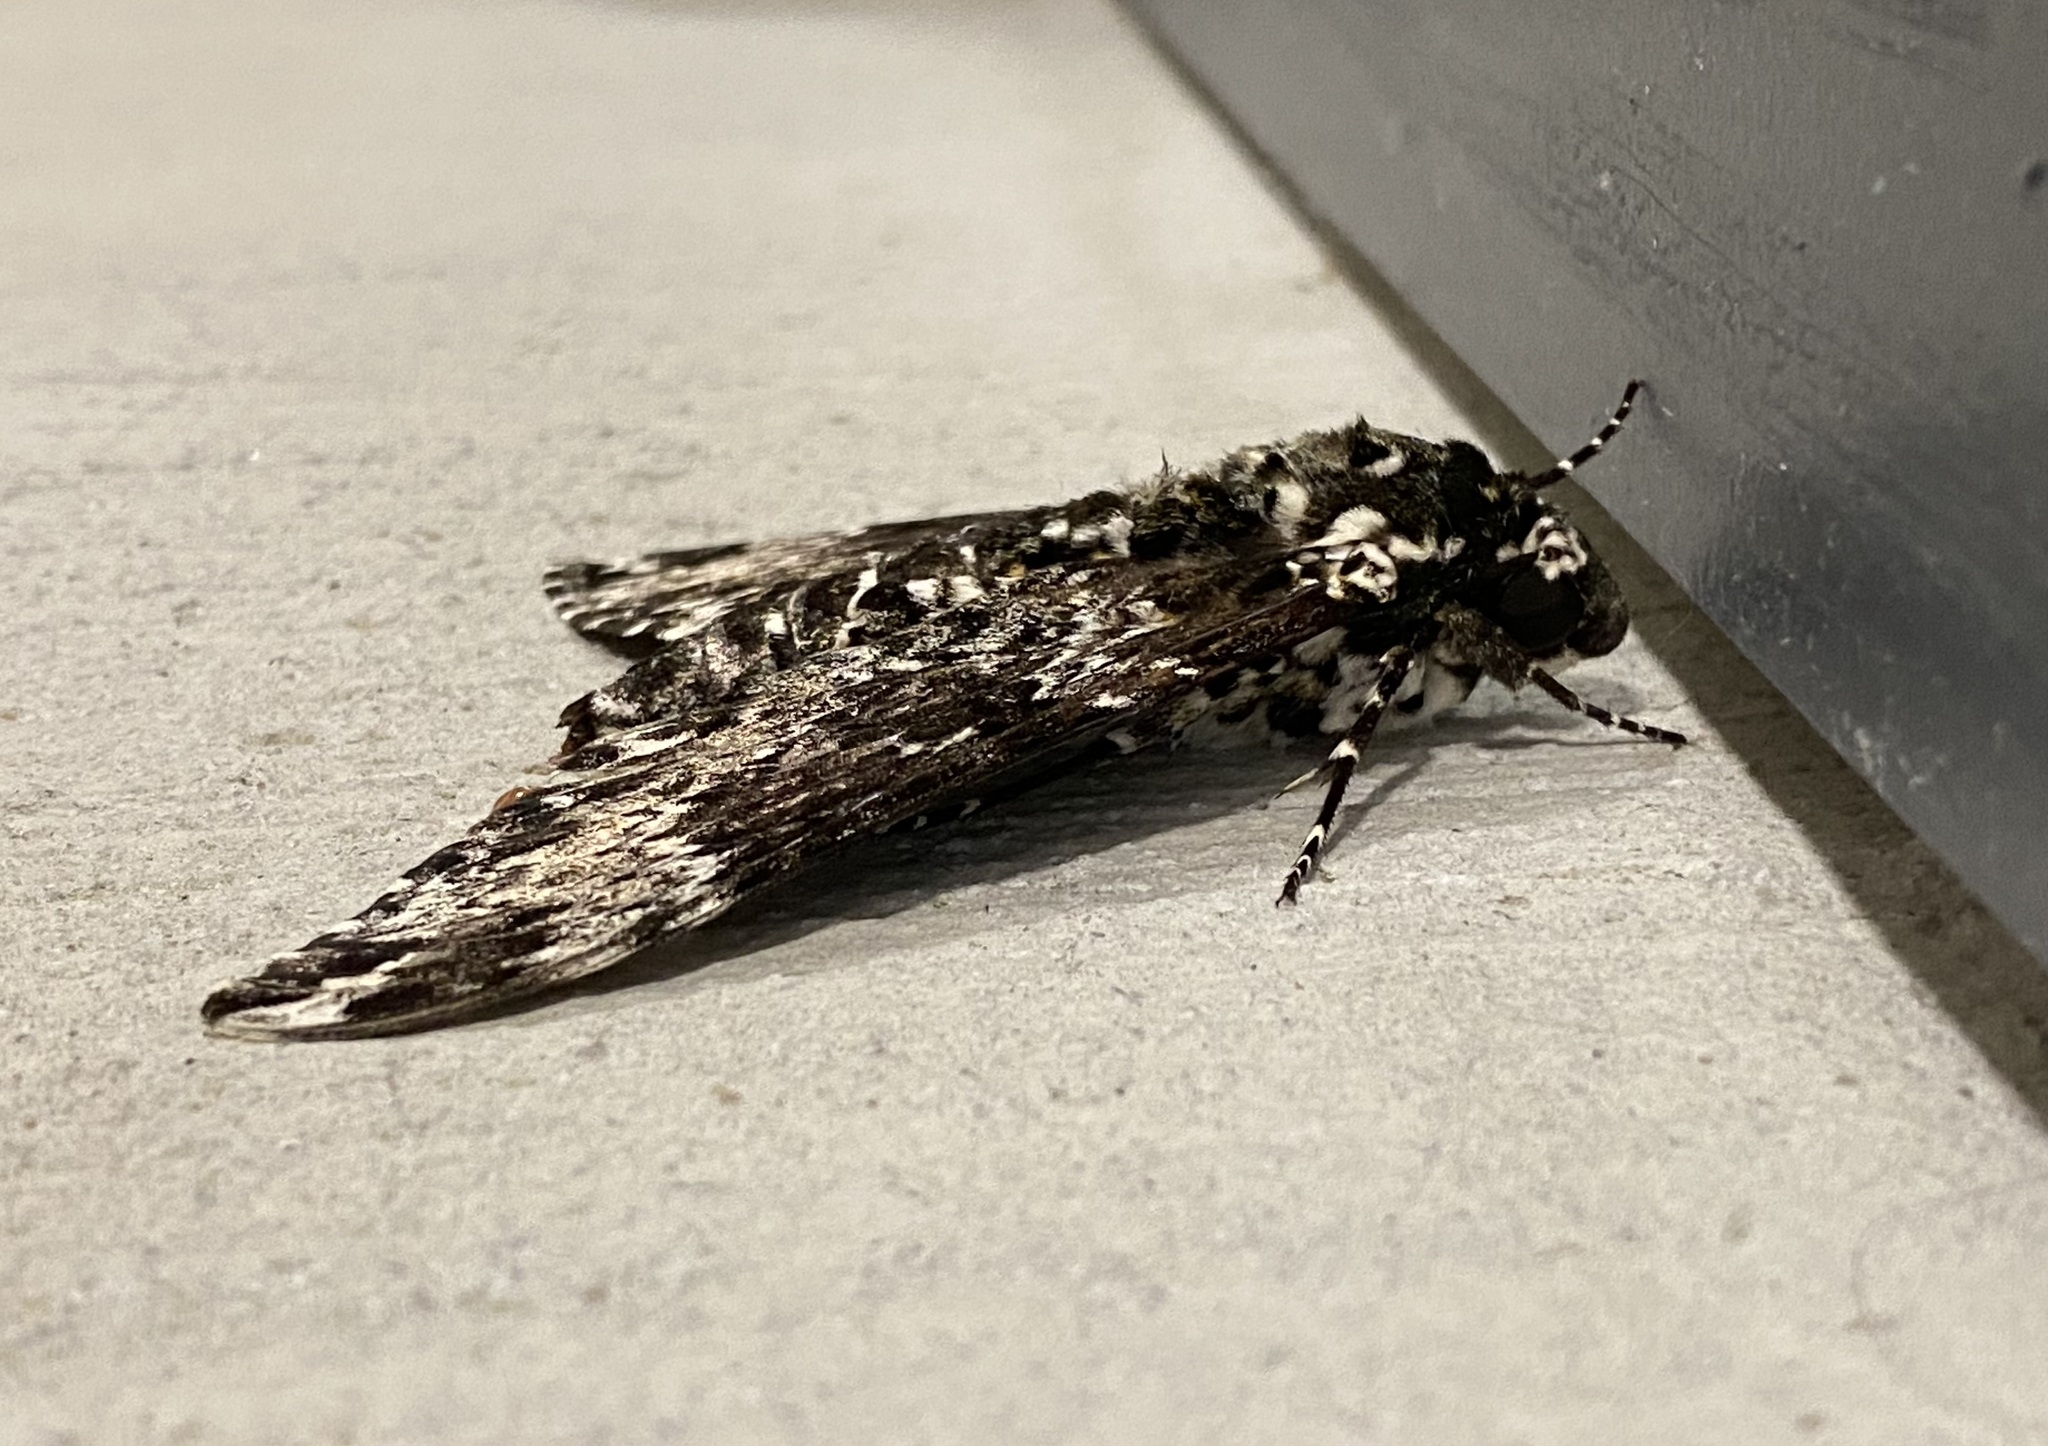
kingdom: Animalia
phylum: Arthropoda
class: Insecta
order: Lepidoptera
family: Sphingidae
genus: Manduca
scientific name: Manduca rustica
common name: Rustic sphinx
